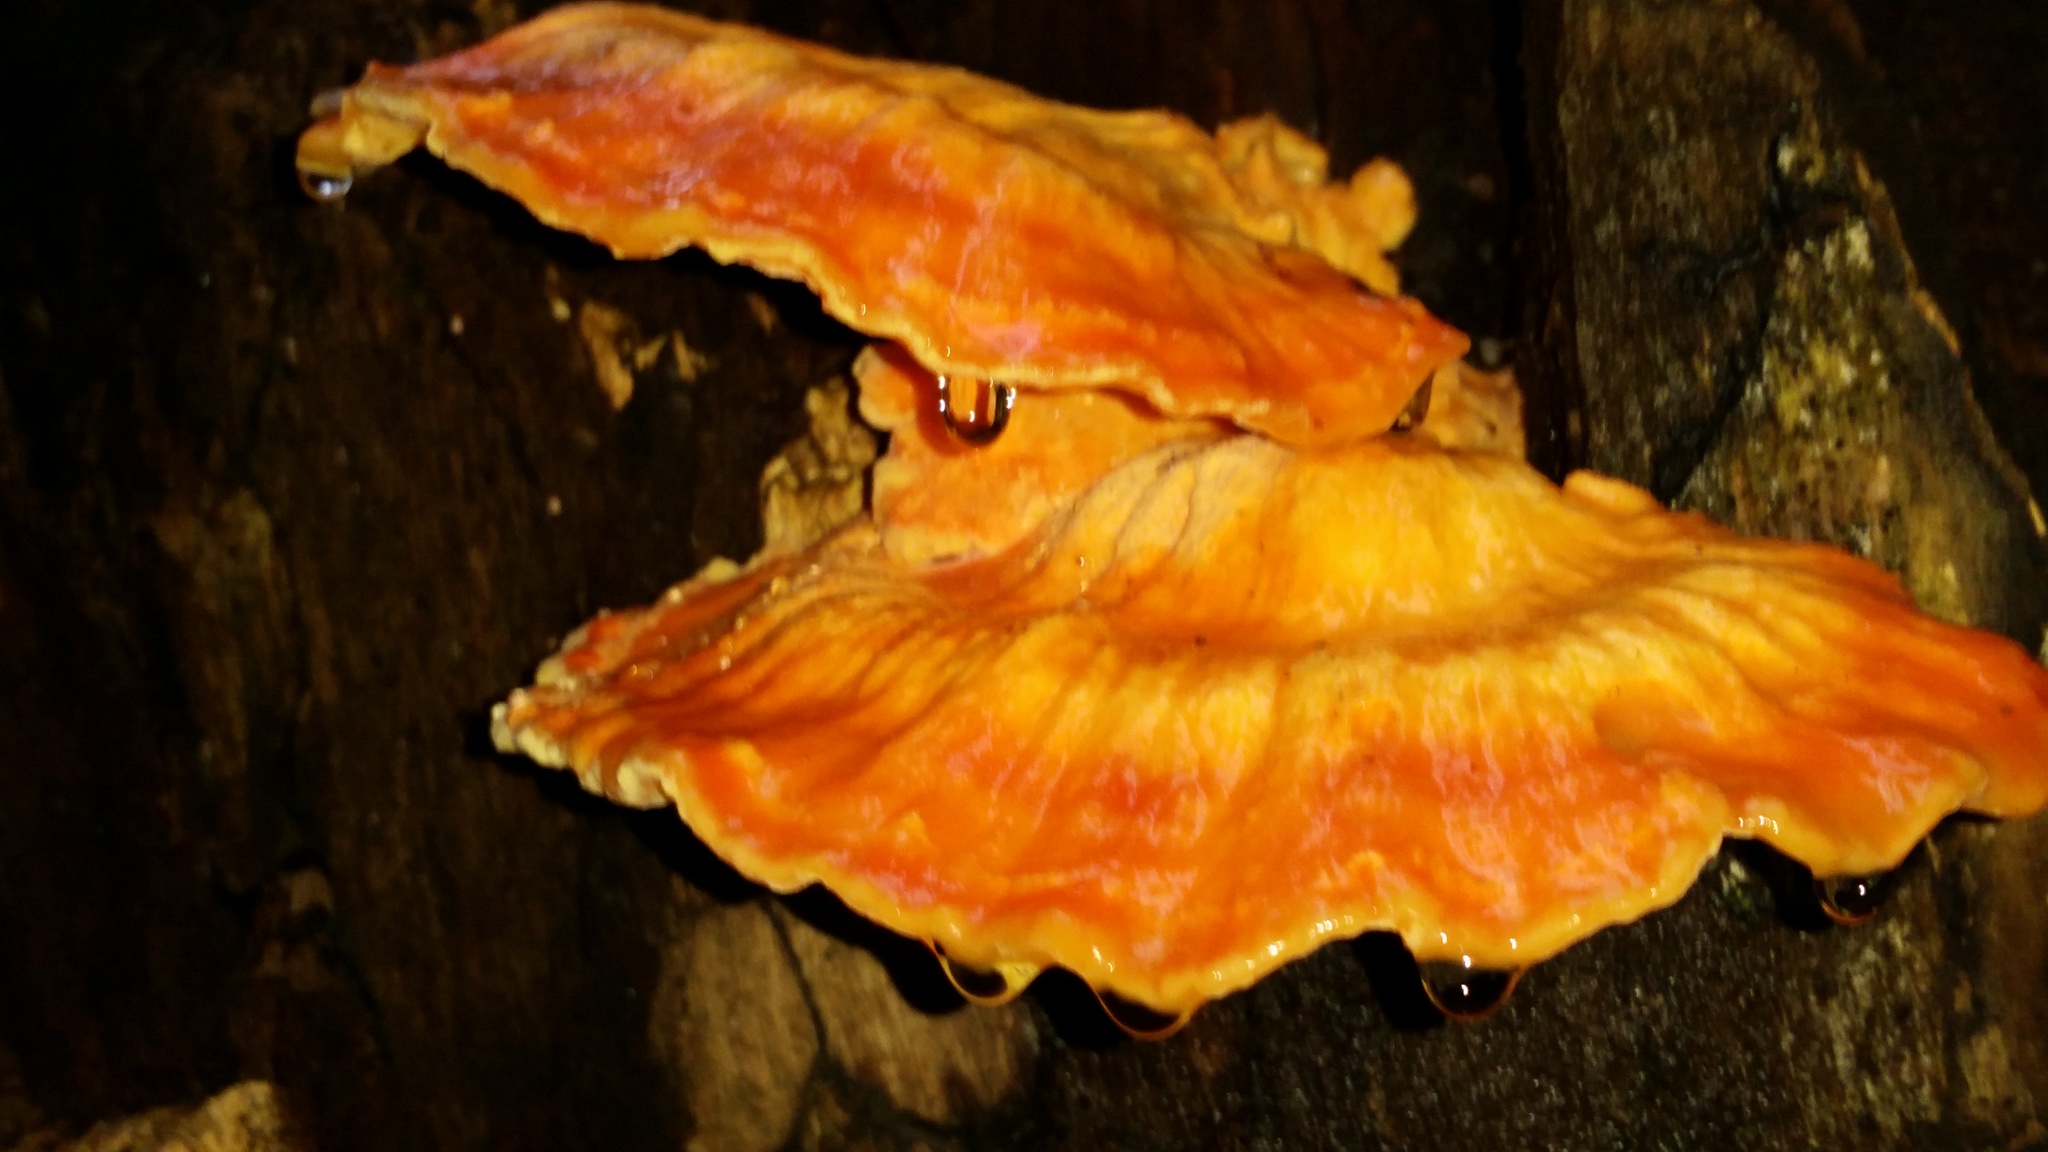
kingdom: Fungi
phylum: Basidiomycota
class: Agaricomycetes
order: Polyporales
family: Laetiporaceae
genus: Laetiporus
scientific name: Laetiporus sulphureus
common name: Chicken of the woods
